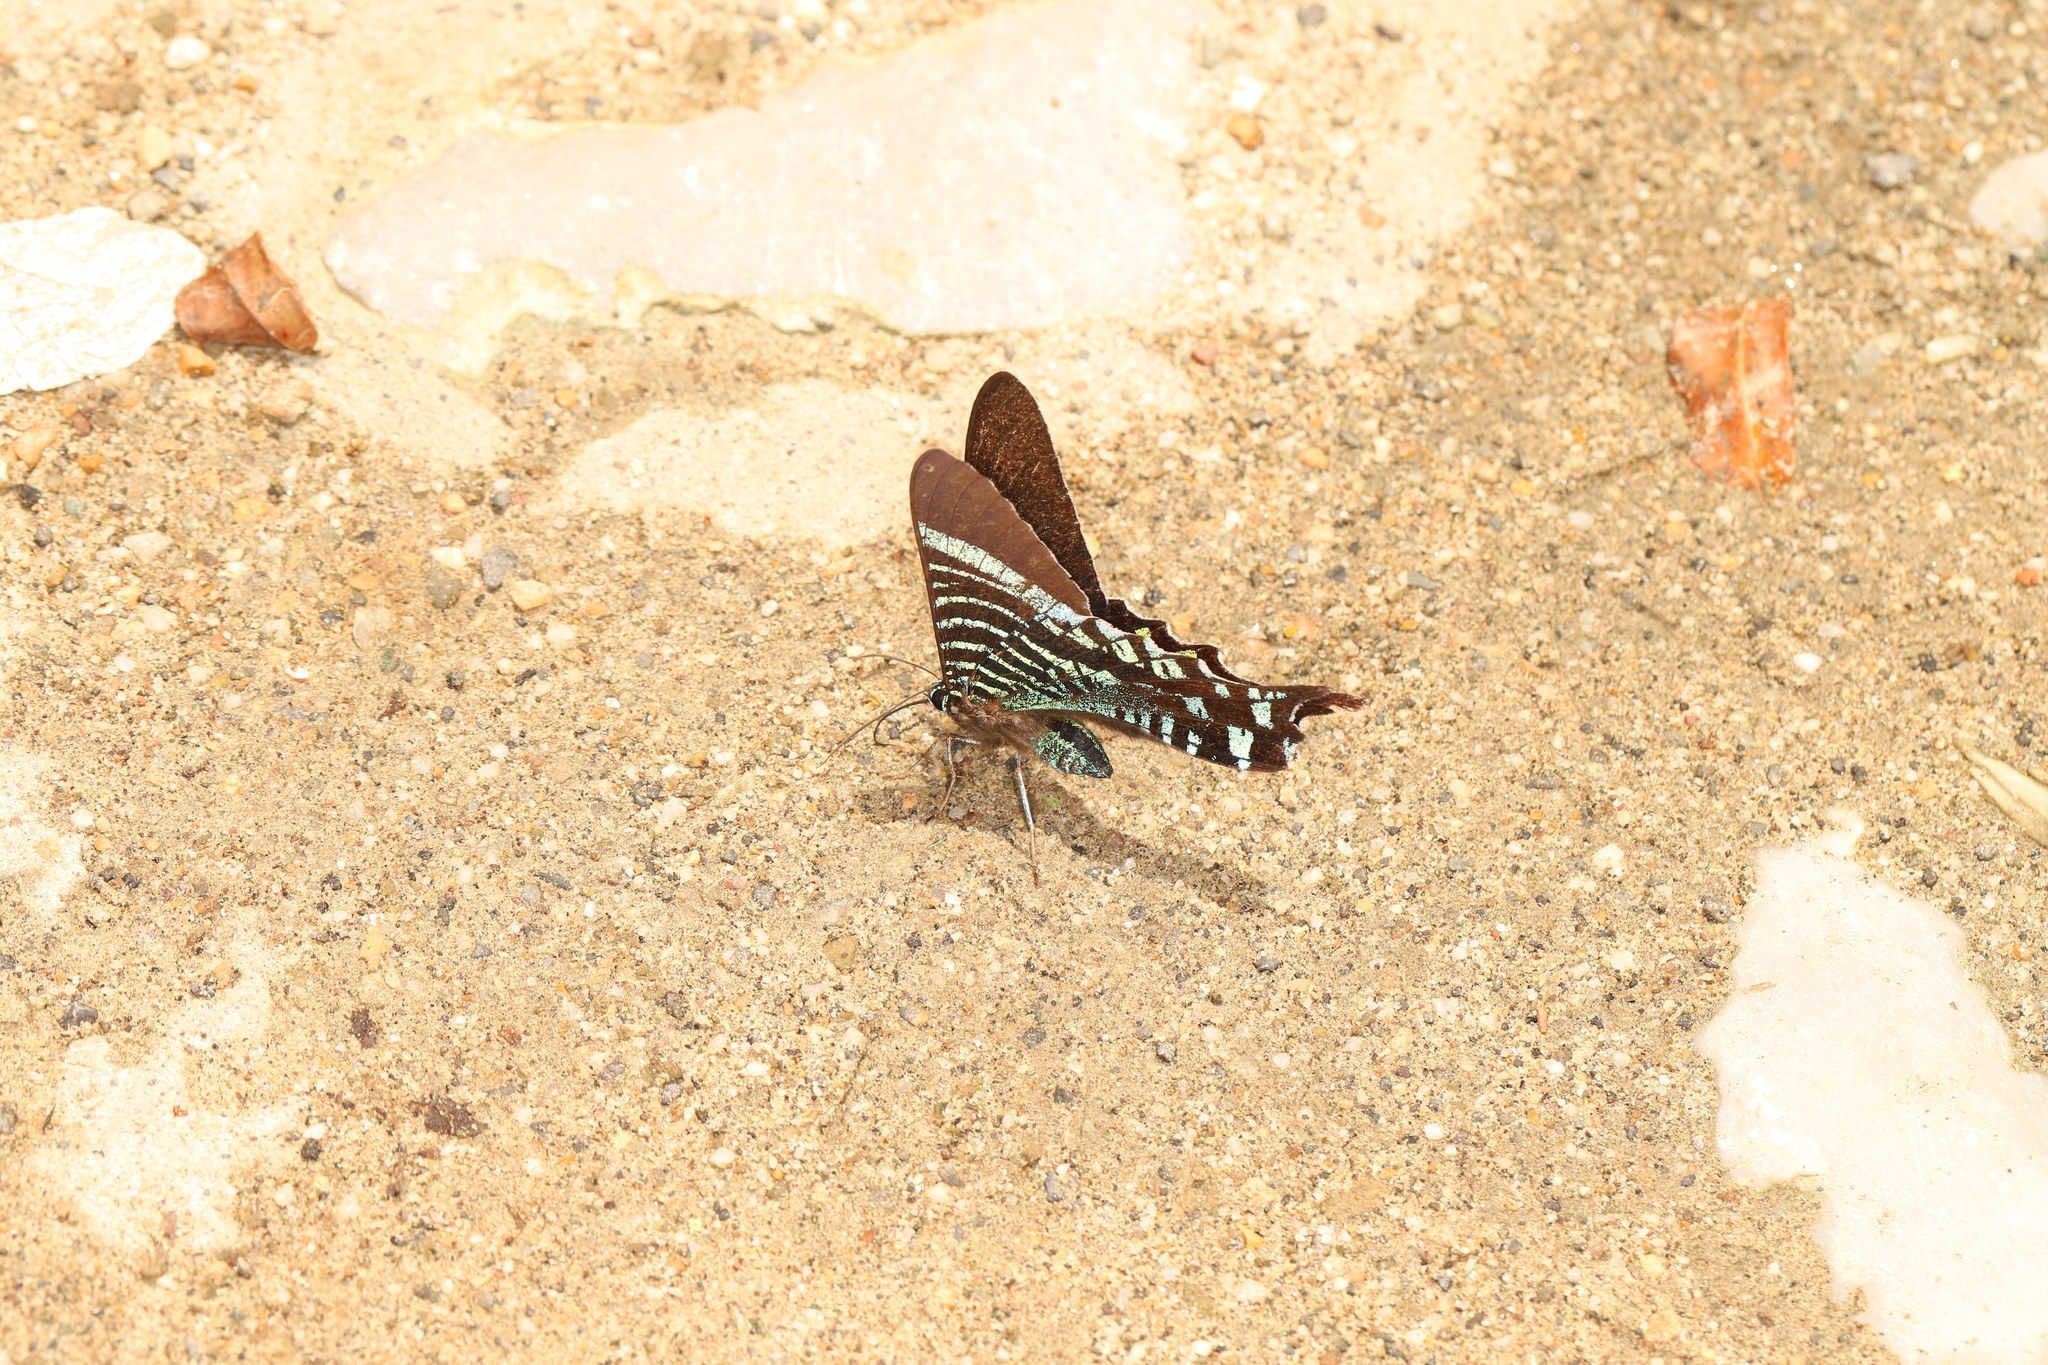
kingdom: Animalia
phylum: Arthropoda
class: Insecta
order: Lepidoptera
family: Uraniidae
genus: Urania
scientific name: Urania fulgens
